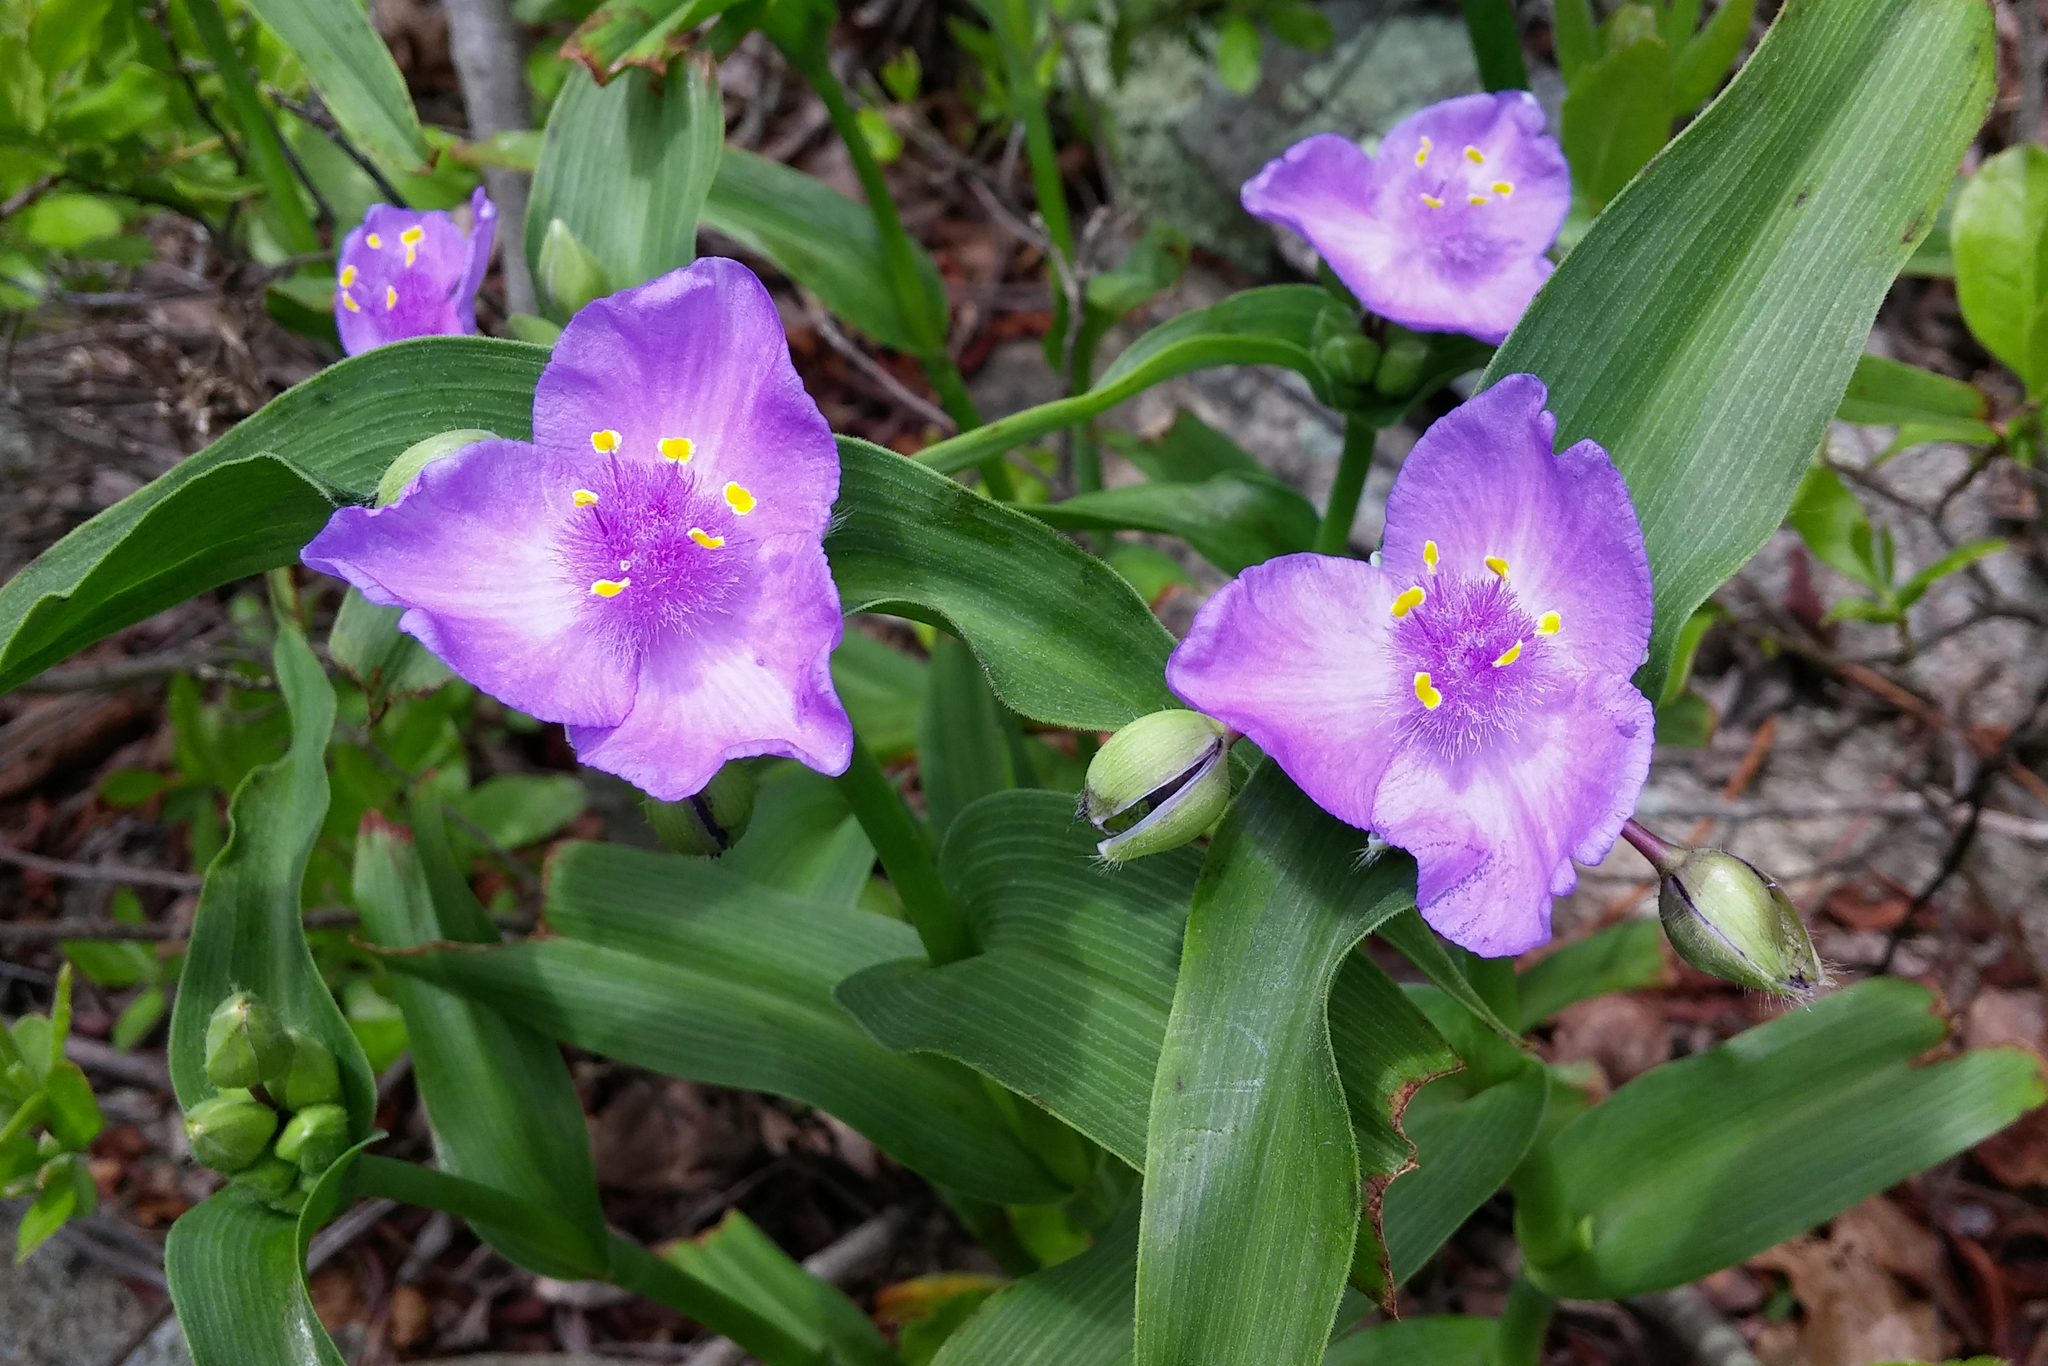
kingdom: Plantae
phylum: Tracheophyta
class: Liliopsida
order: Commelinales
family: Commelinaceae
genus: Tradescantia
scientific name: Tradescantia virginiana
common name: Spiderwort
